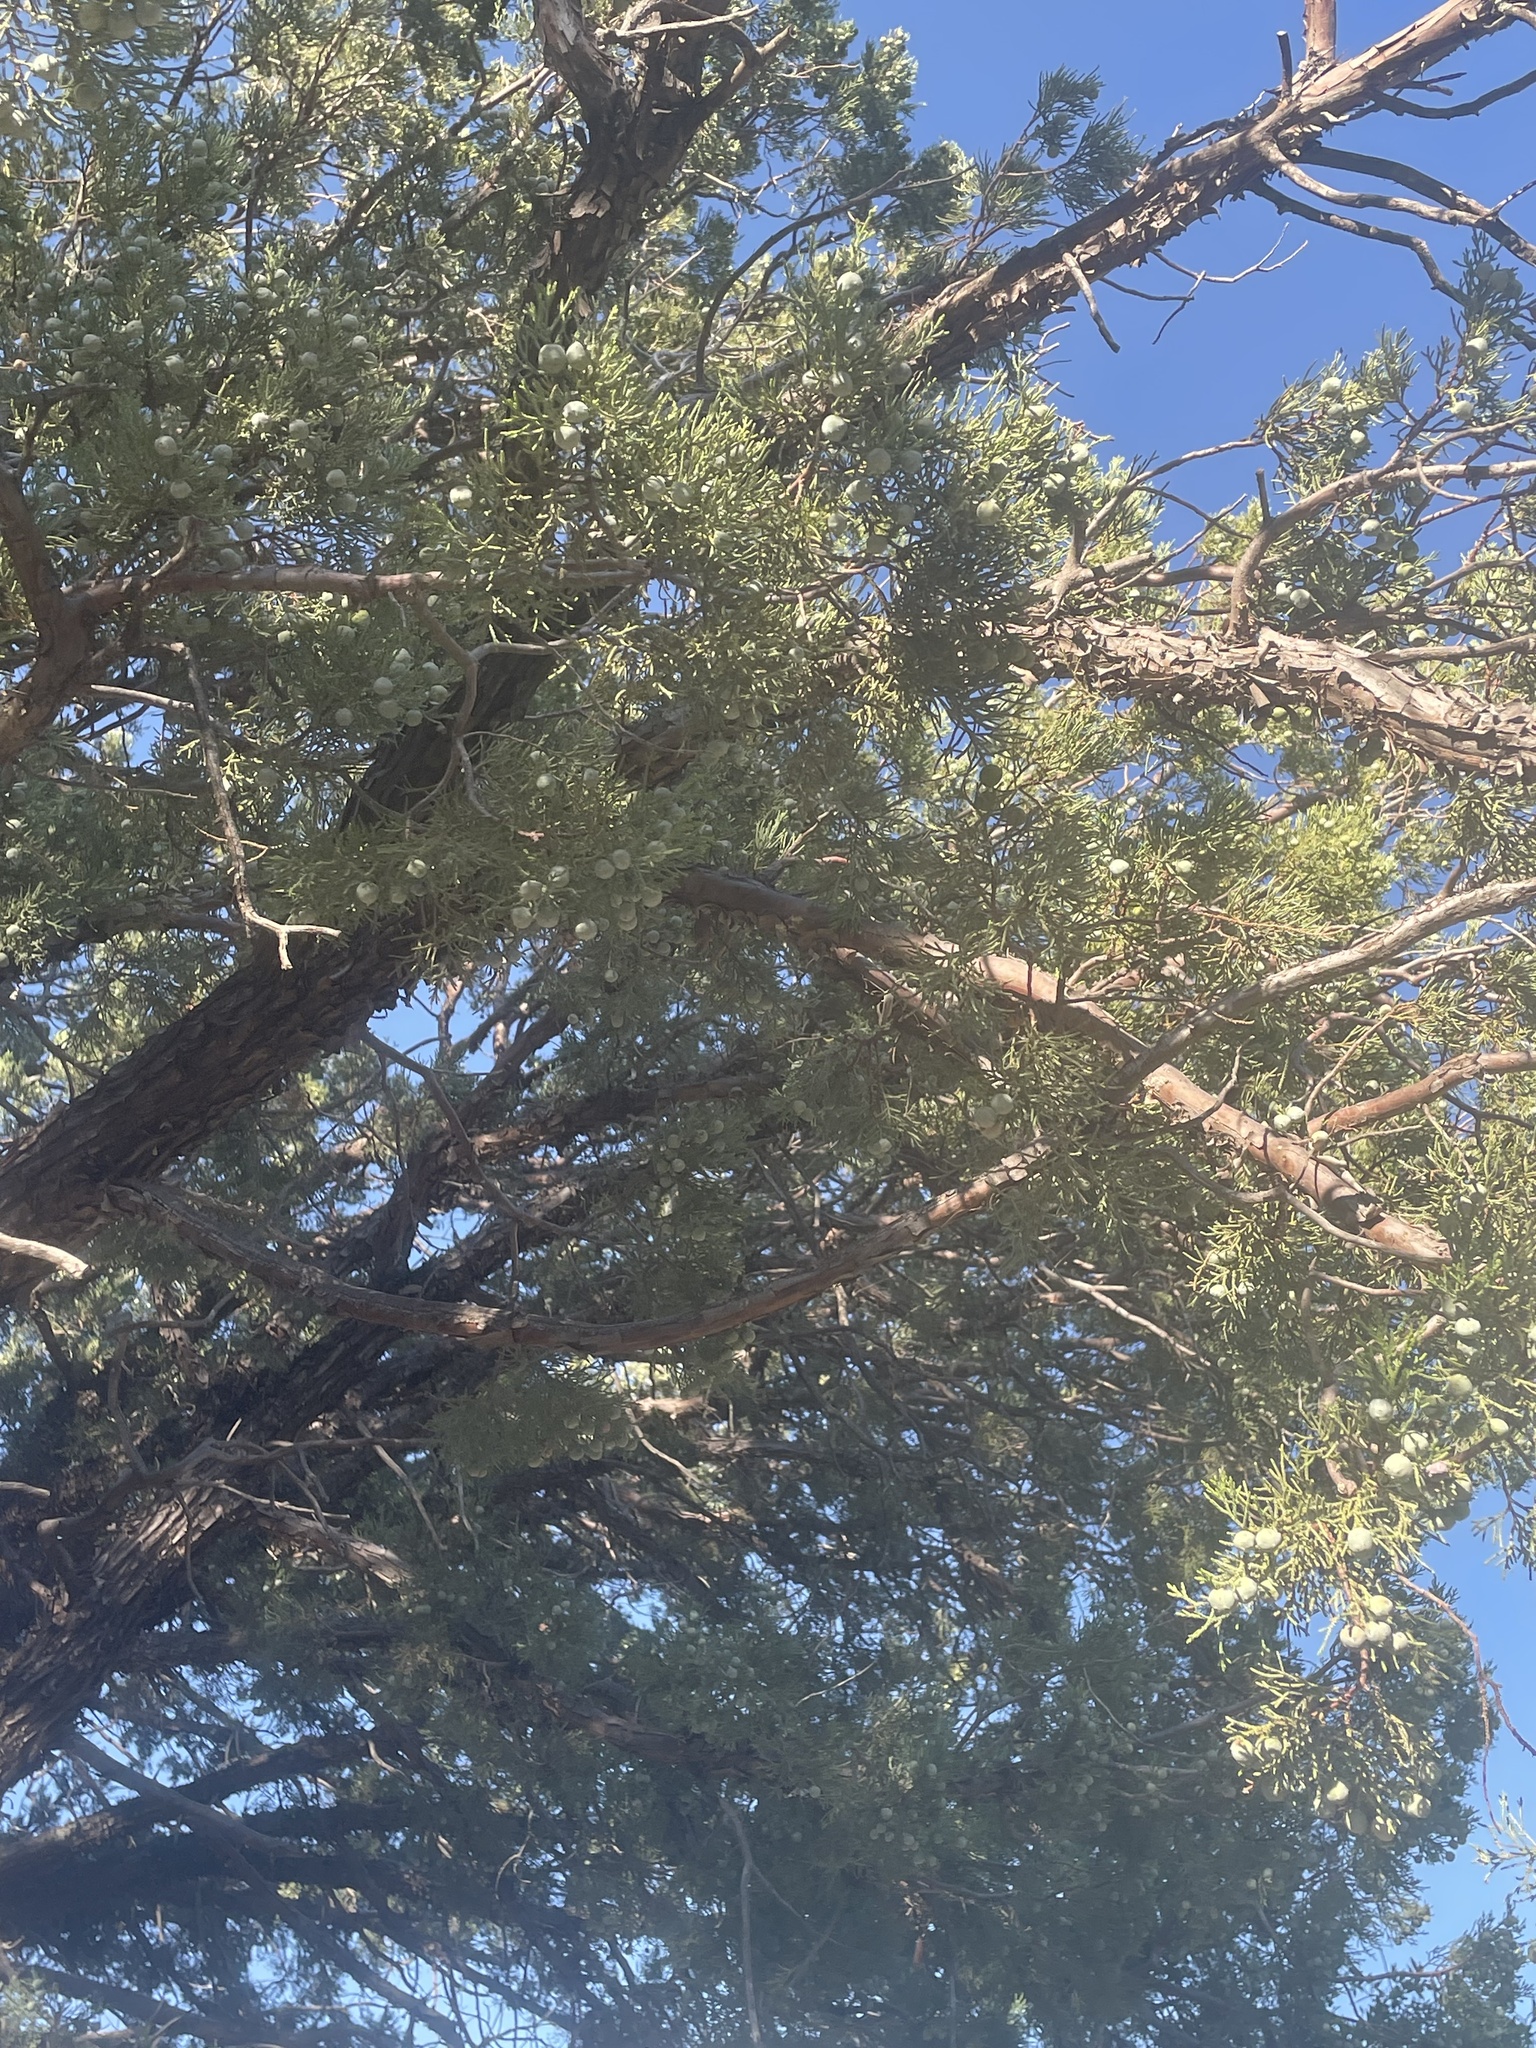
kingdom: Plantae
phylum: Tracheophyta
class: Pinopsida
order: Pinales
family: Cupressaceae
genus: Juniperus
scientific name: Juniperus deppeana
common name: Alligator juniper
